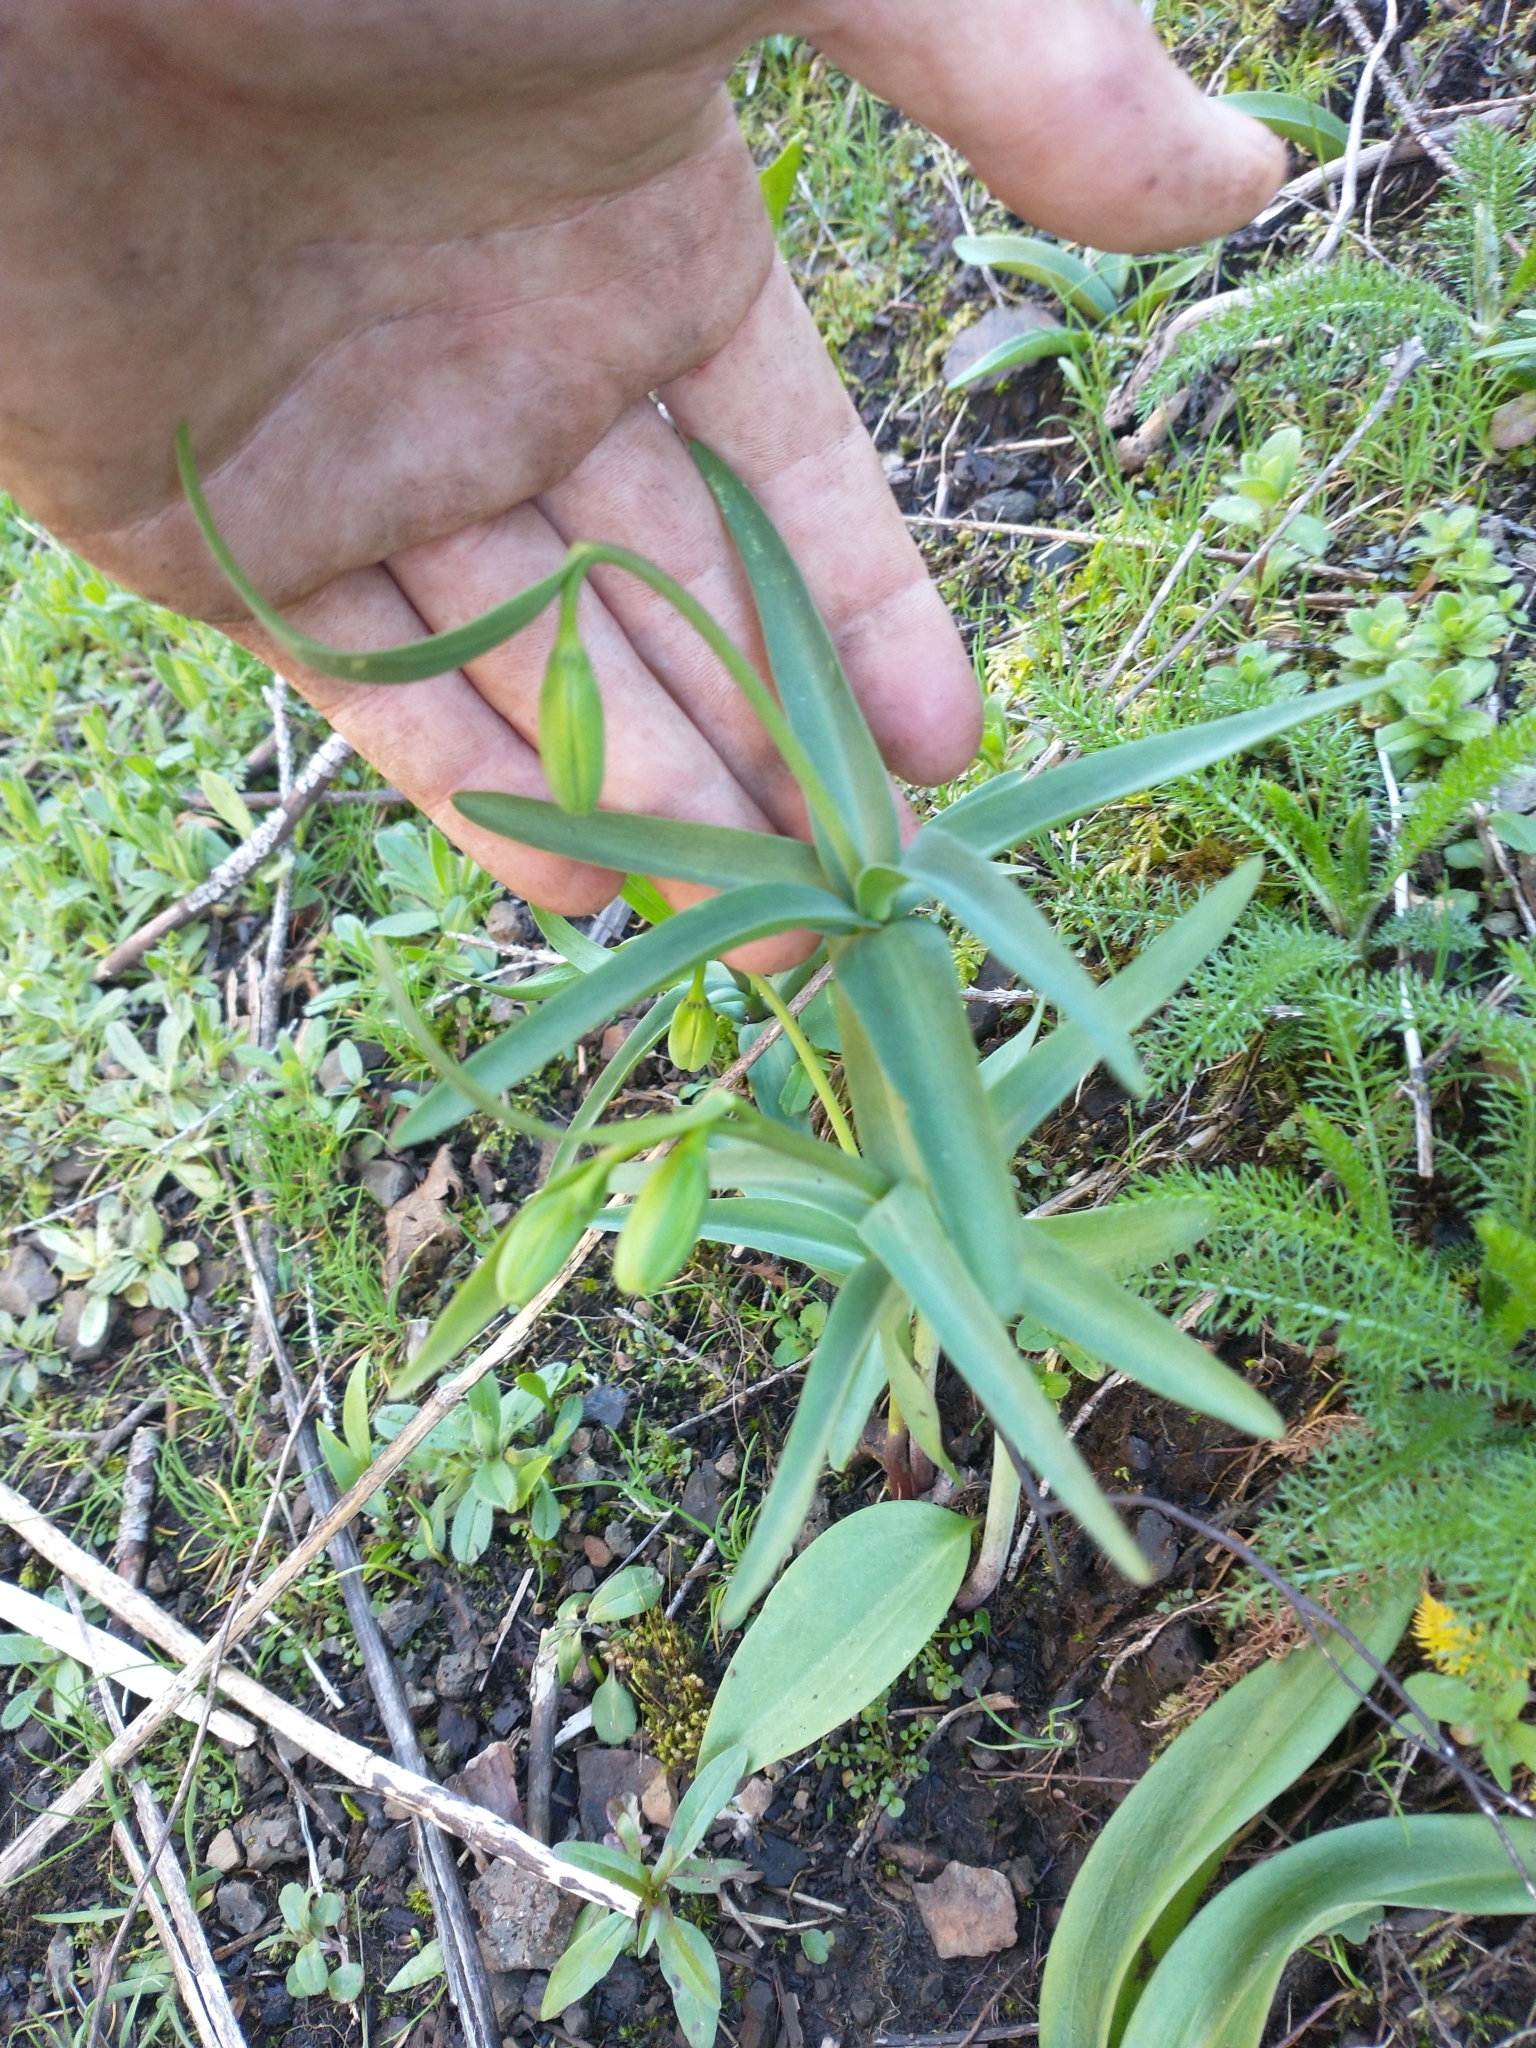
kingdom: Plantae
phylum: Tracheophyta
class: Liliopsida
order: Liliales
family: Liliaceae
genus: Fritillaria
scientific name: Fritillaria affinis
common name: Ojai fritillary
